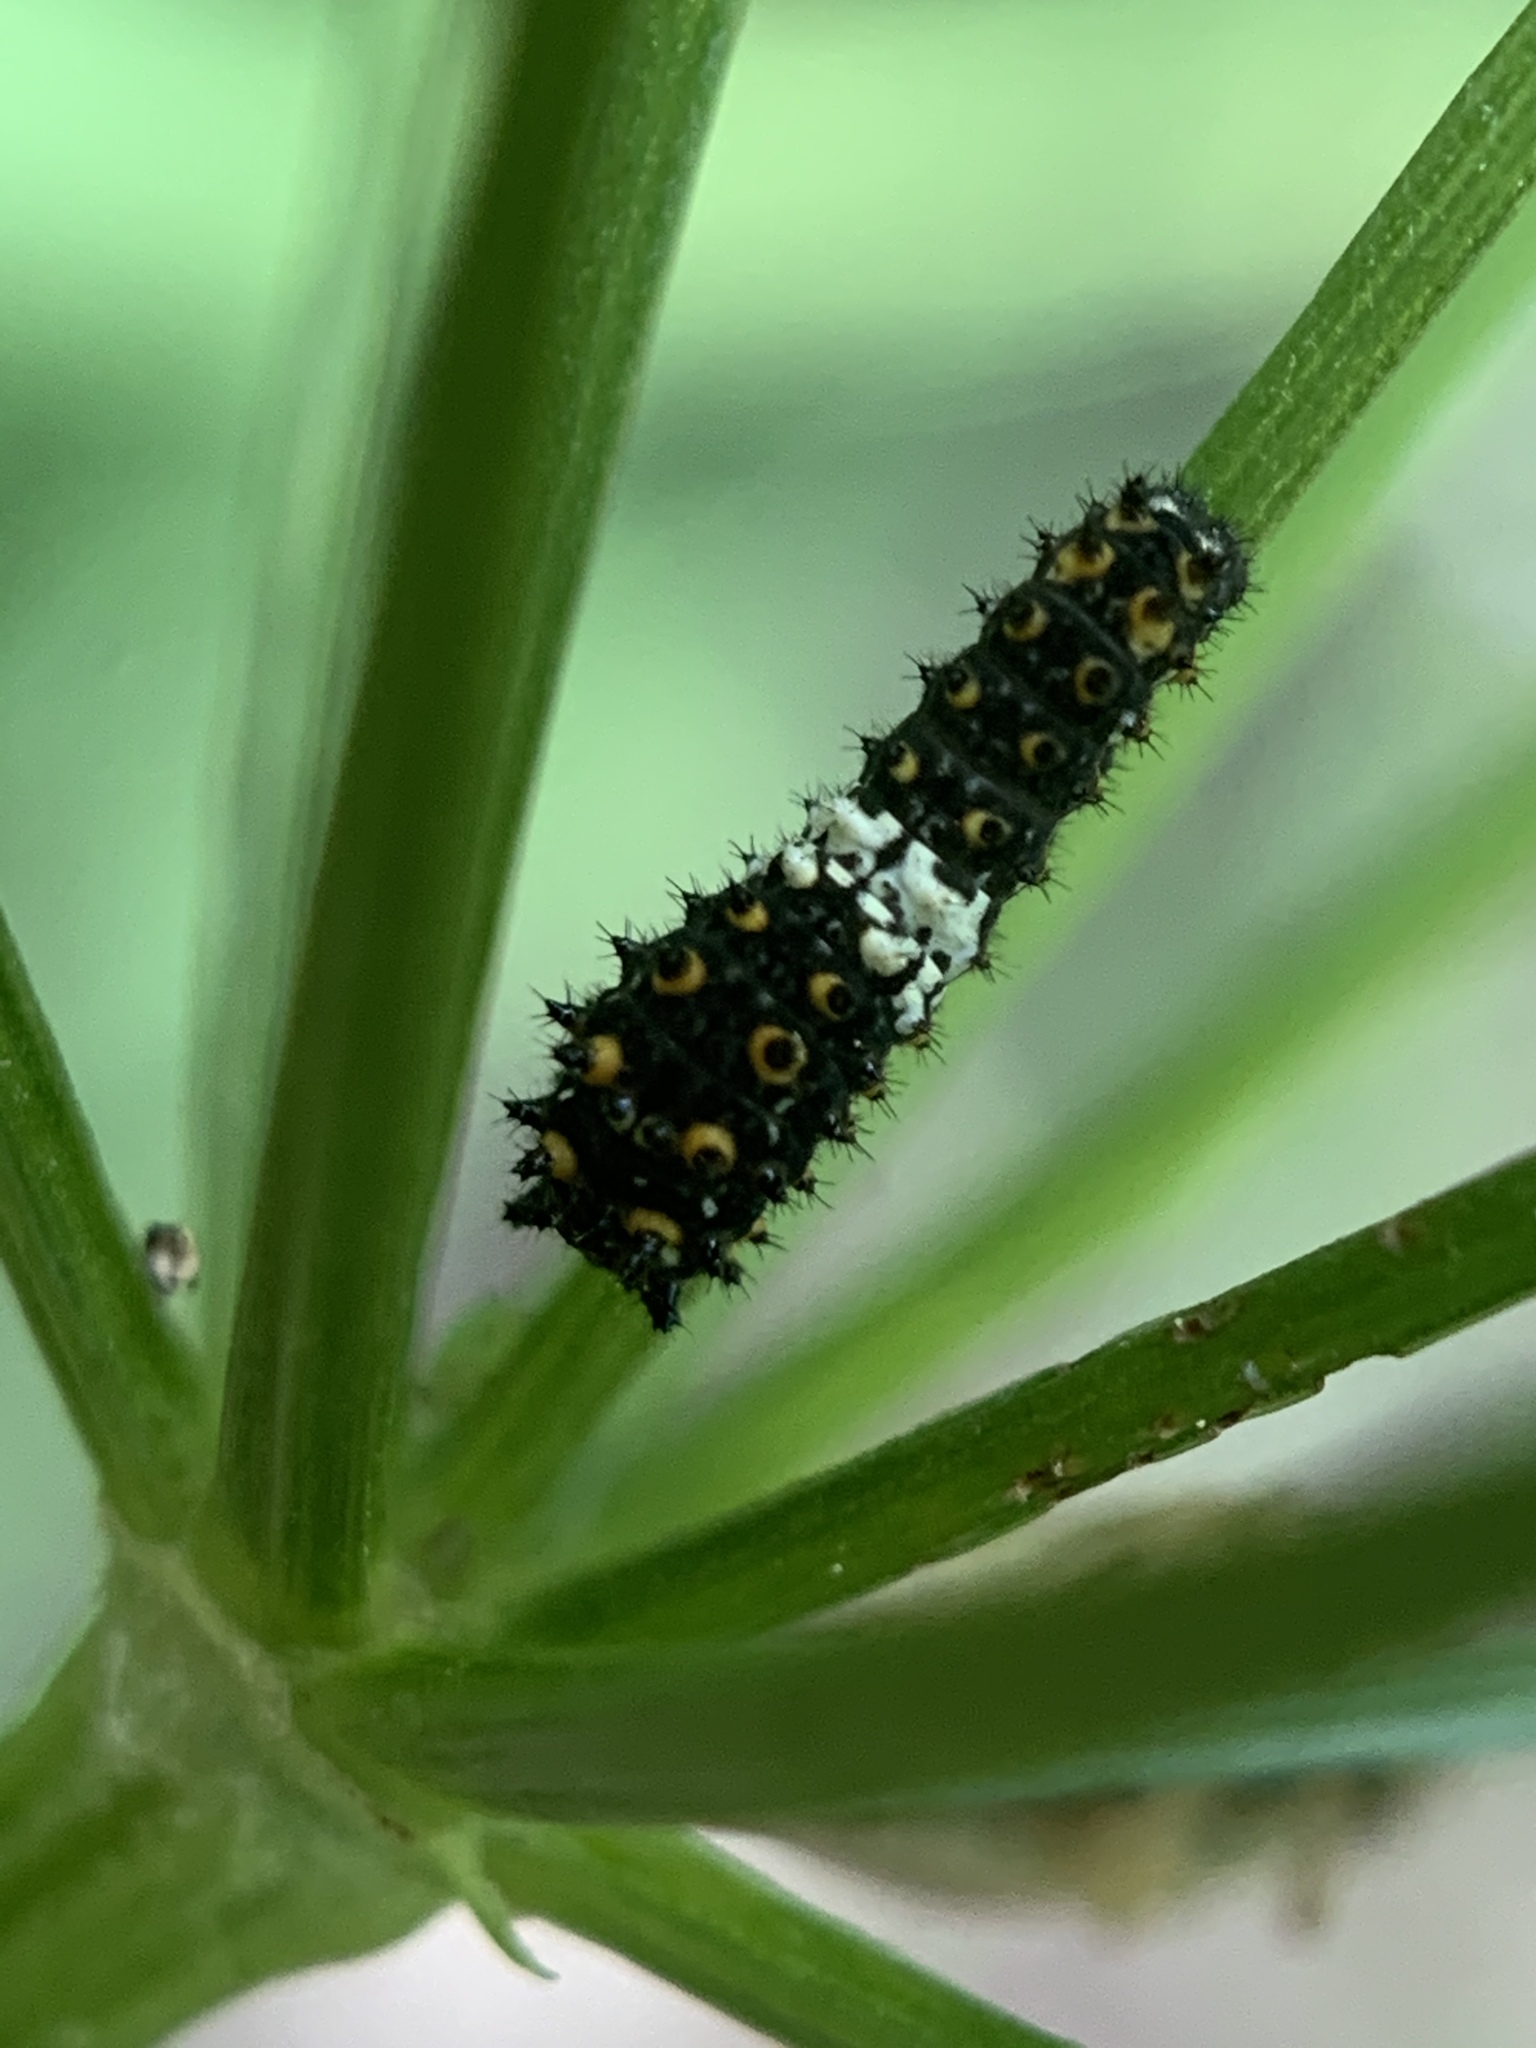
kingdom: Animalia
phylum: Arthropoda
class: Insecta
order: Lepidoptera
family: Papilionidae
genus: Papilio
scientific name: Papilio polyxenes
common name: Black swallowtail
